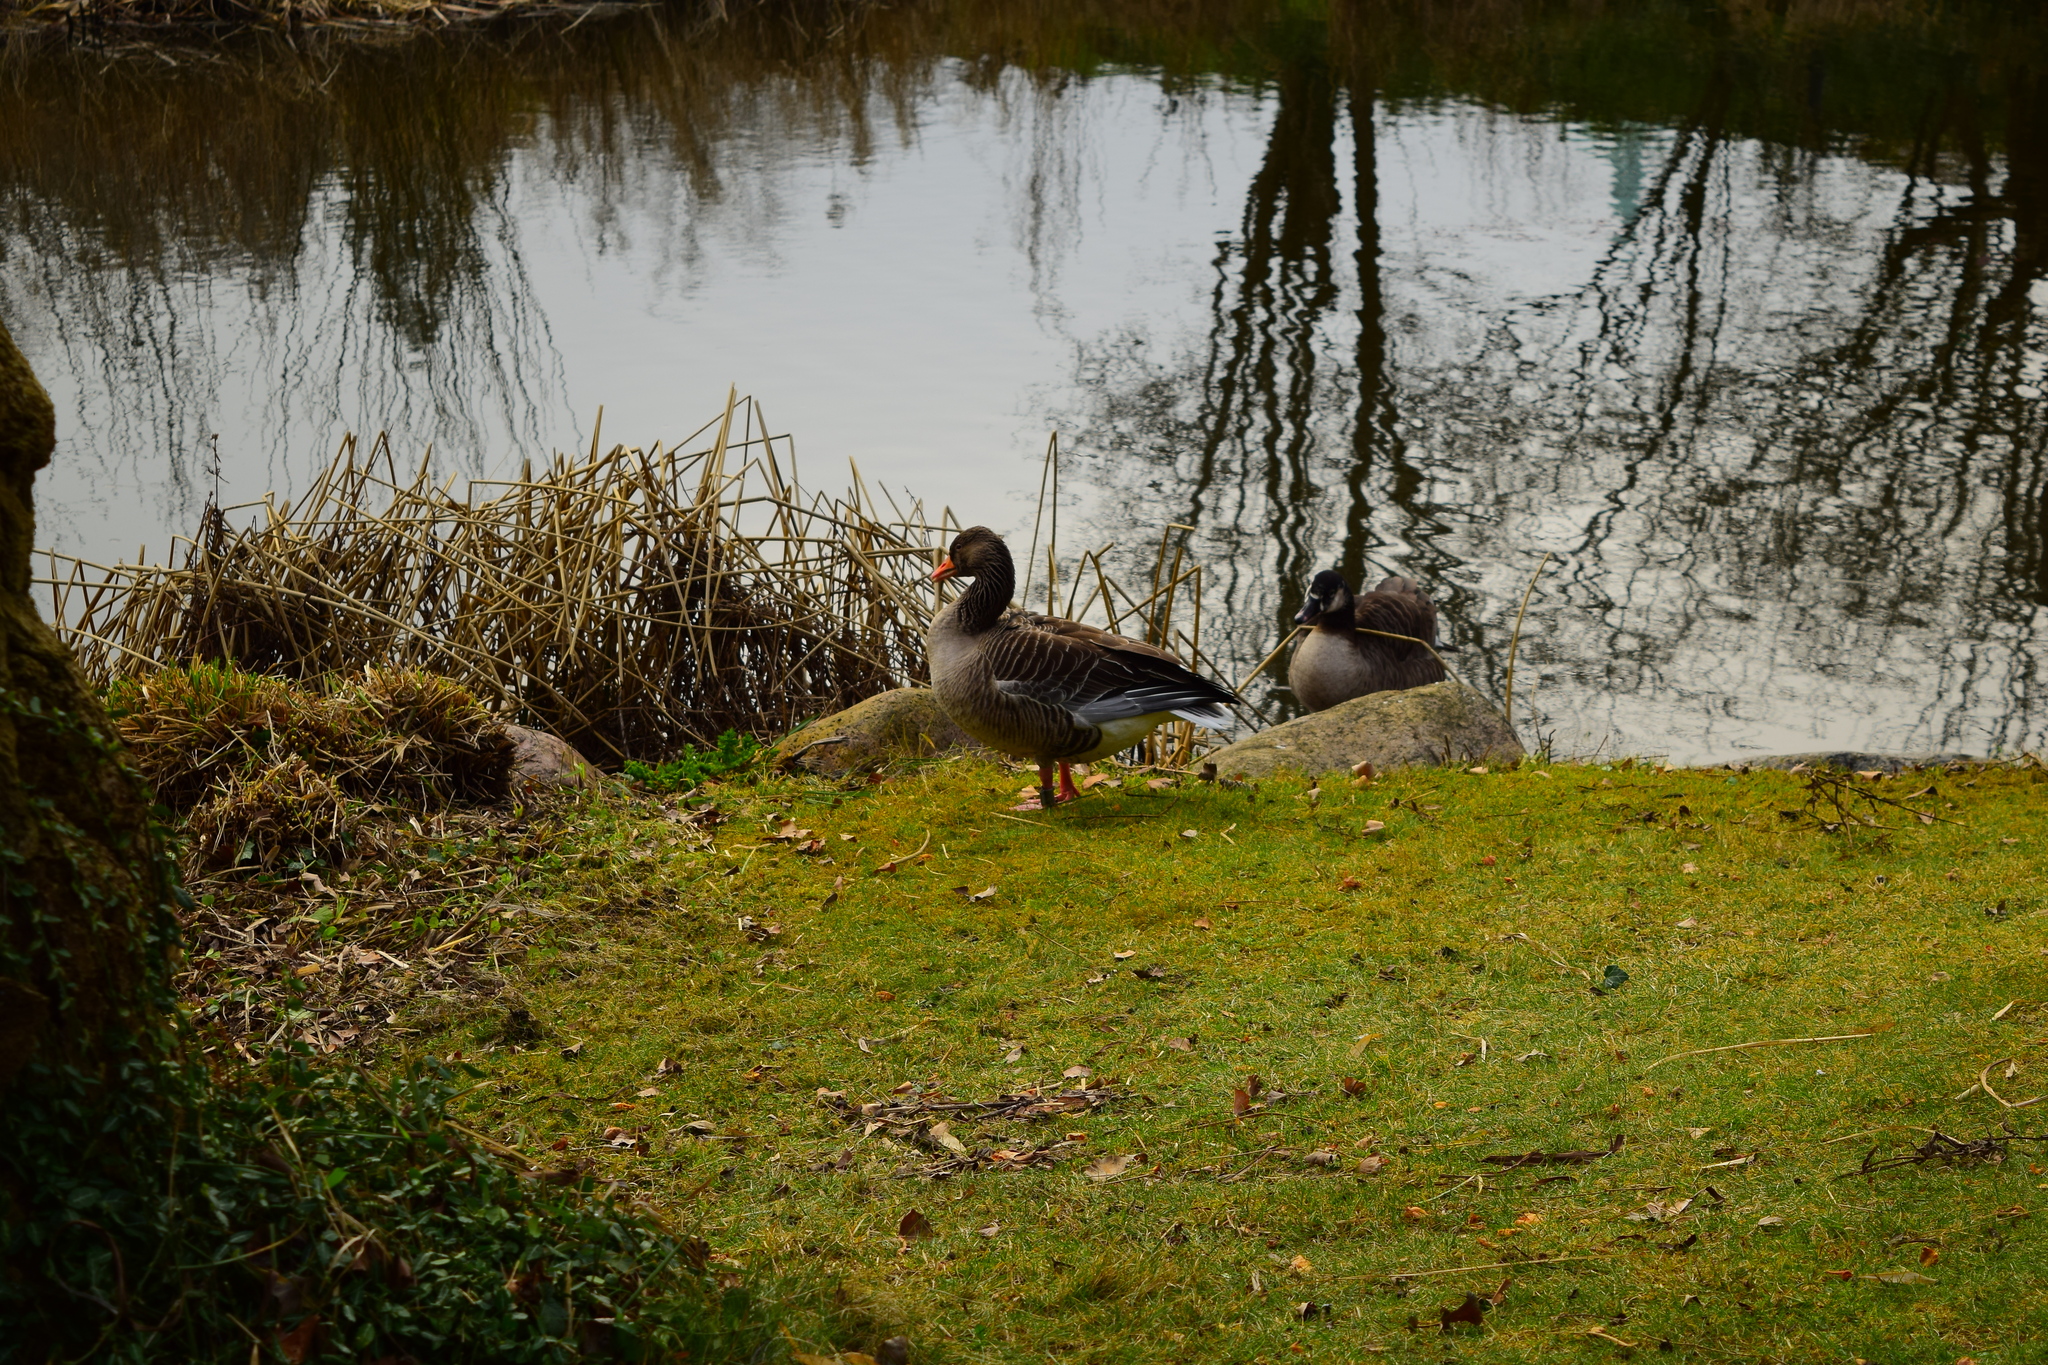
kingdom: Animalia
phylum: Chordata
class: Aves
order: Anseriformes
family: Anatidae
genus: Anser
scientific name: Anser anser
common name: Greylag goose
